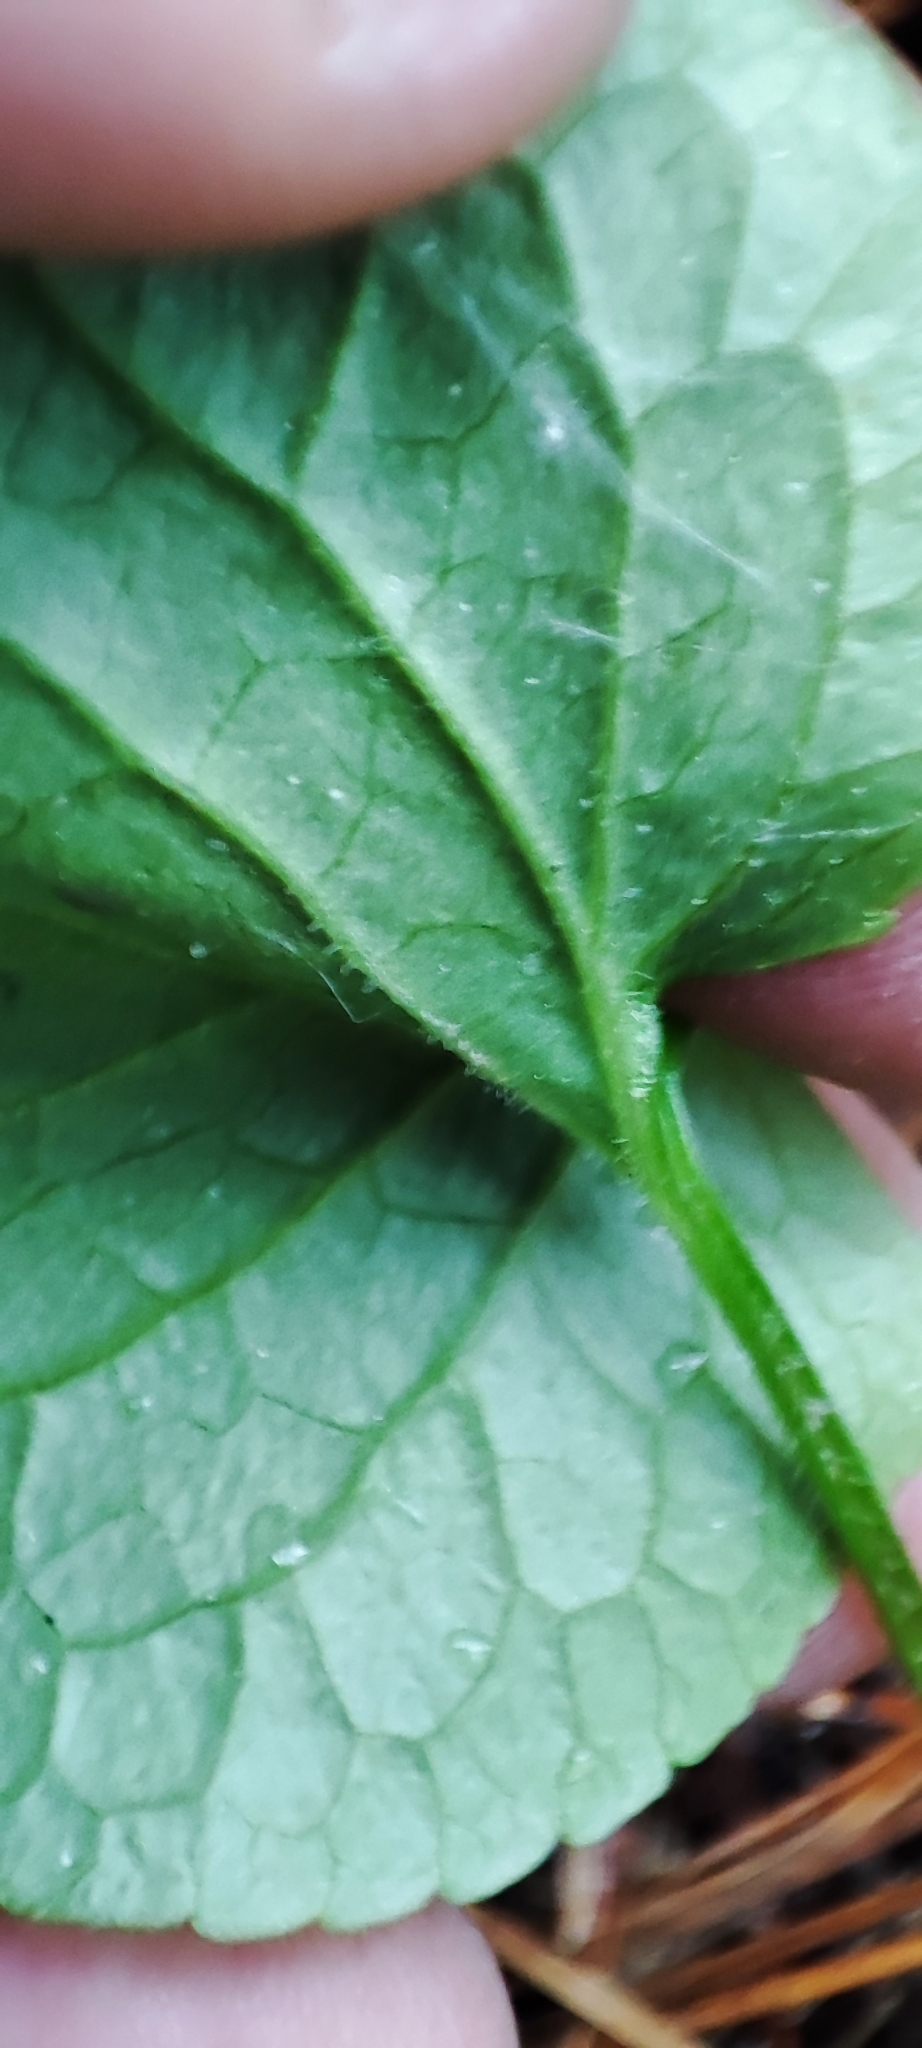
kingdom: Plantae
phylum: Tracheophyta
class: Magnoliopsida
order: Malpighiales
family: Violaceae
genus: Viola
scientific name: Viola mirabilis
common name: Wonder violet
